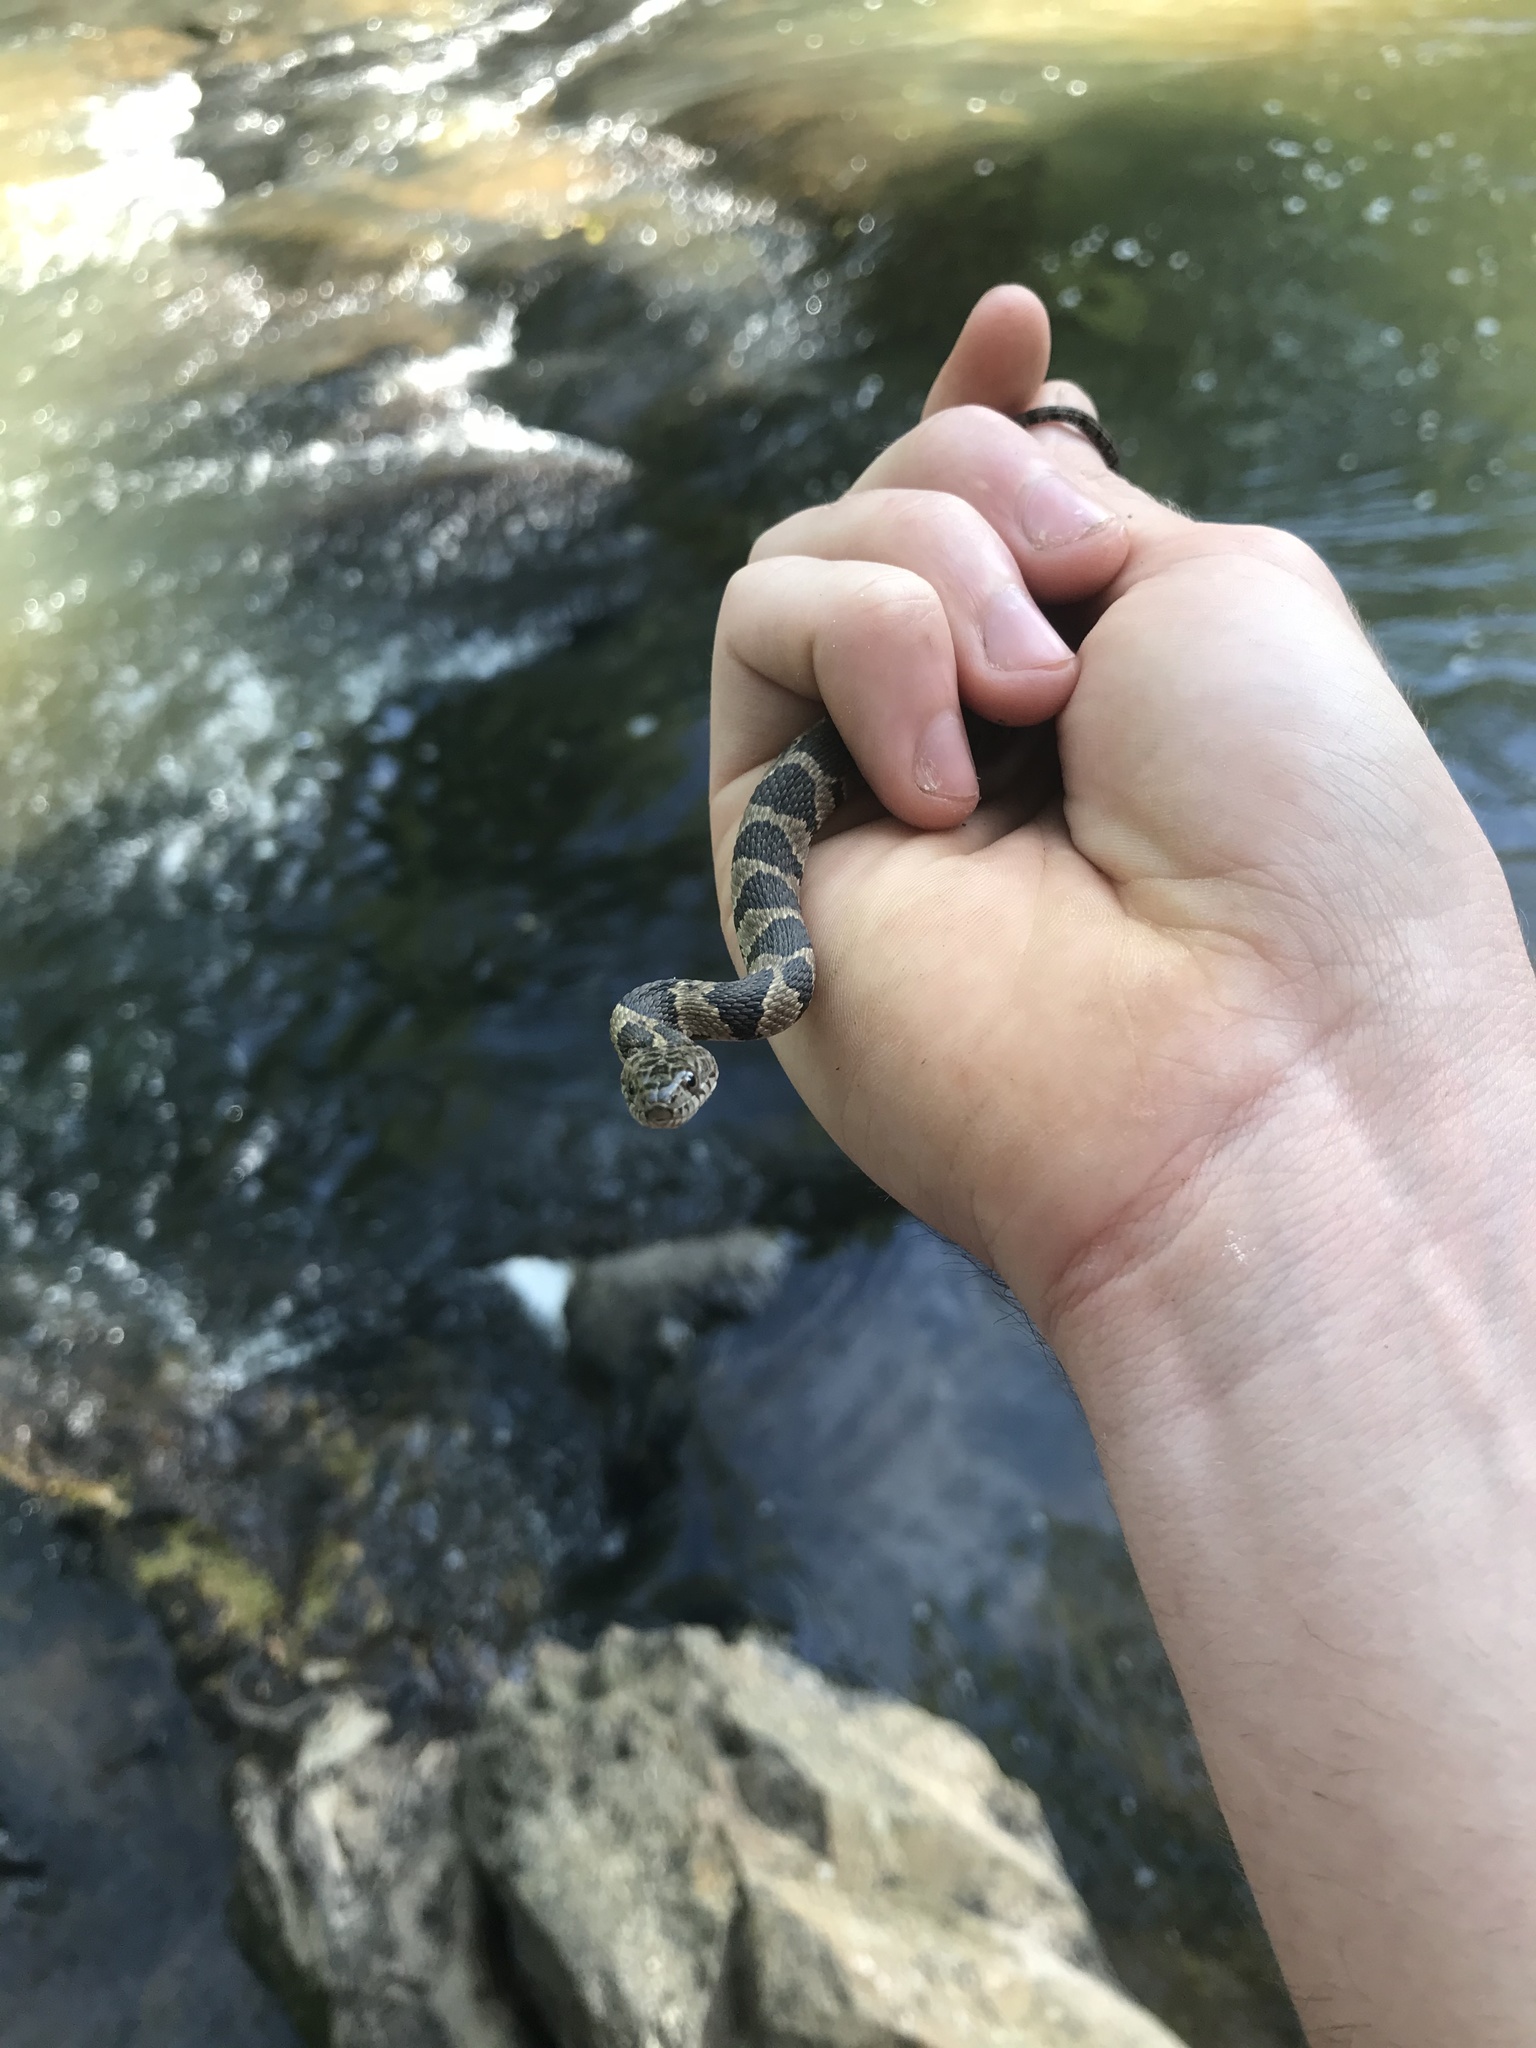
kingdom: Animalia
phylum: Chordata
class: Squamata
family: Colubridae
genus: Nerodia
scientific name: Nerodia sipedon
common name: Northern water snake
